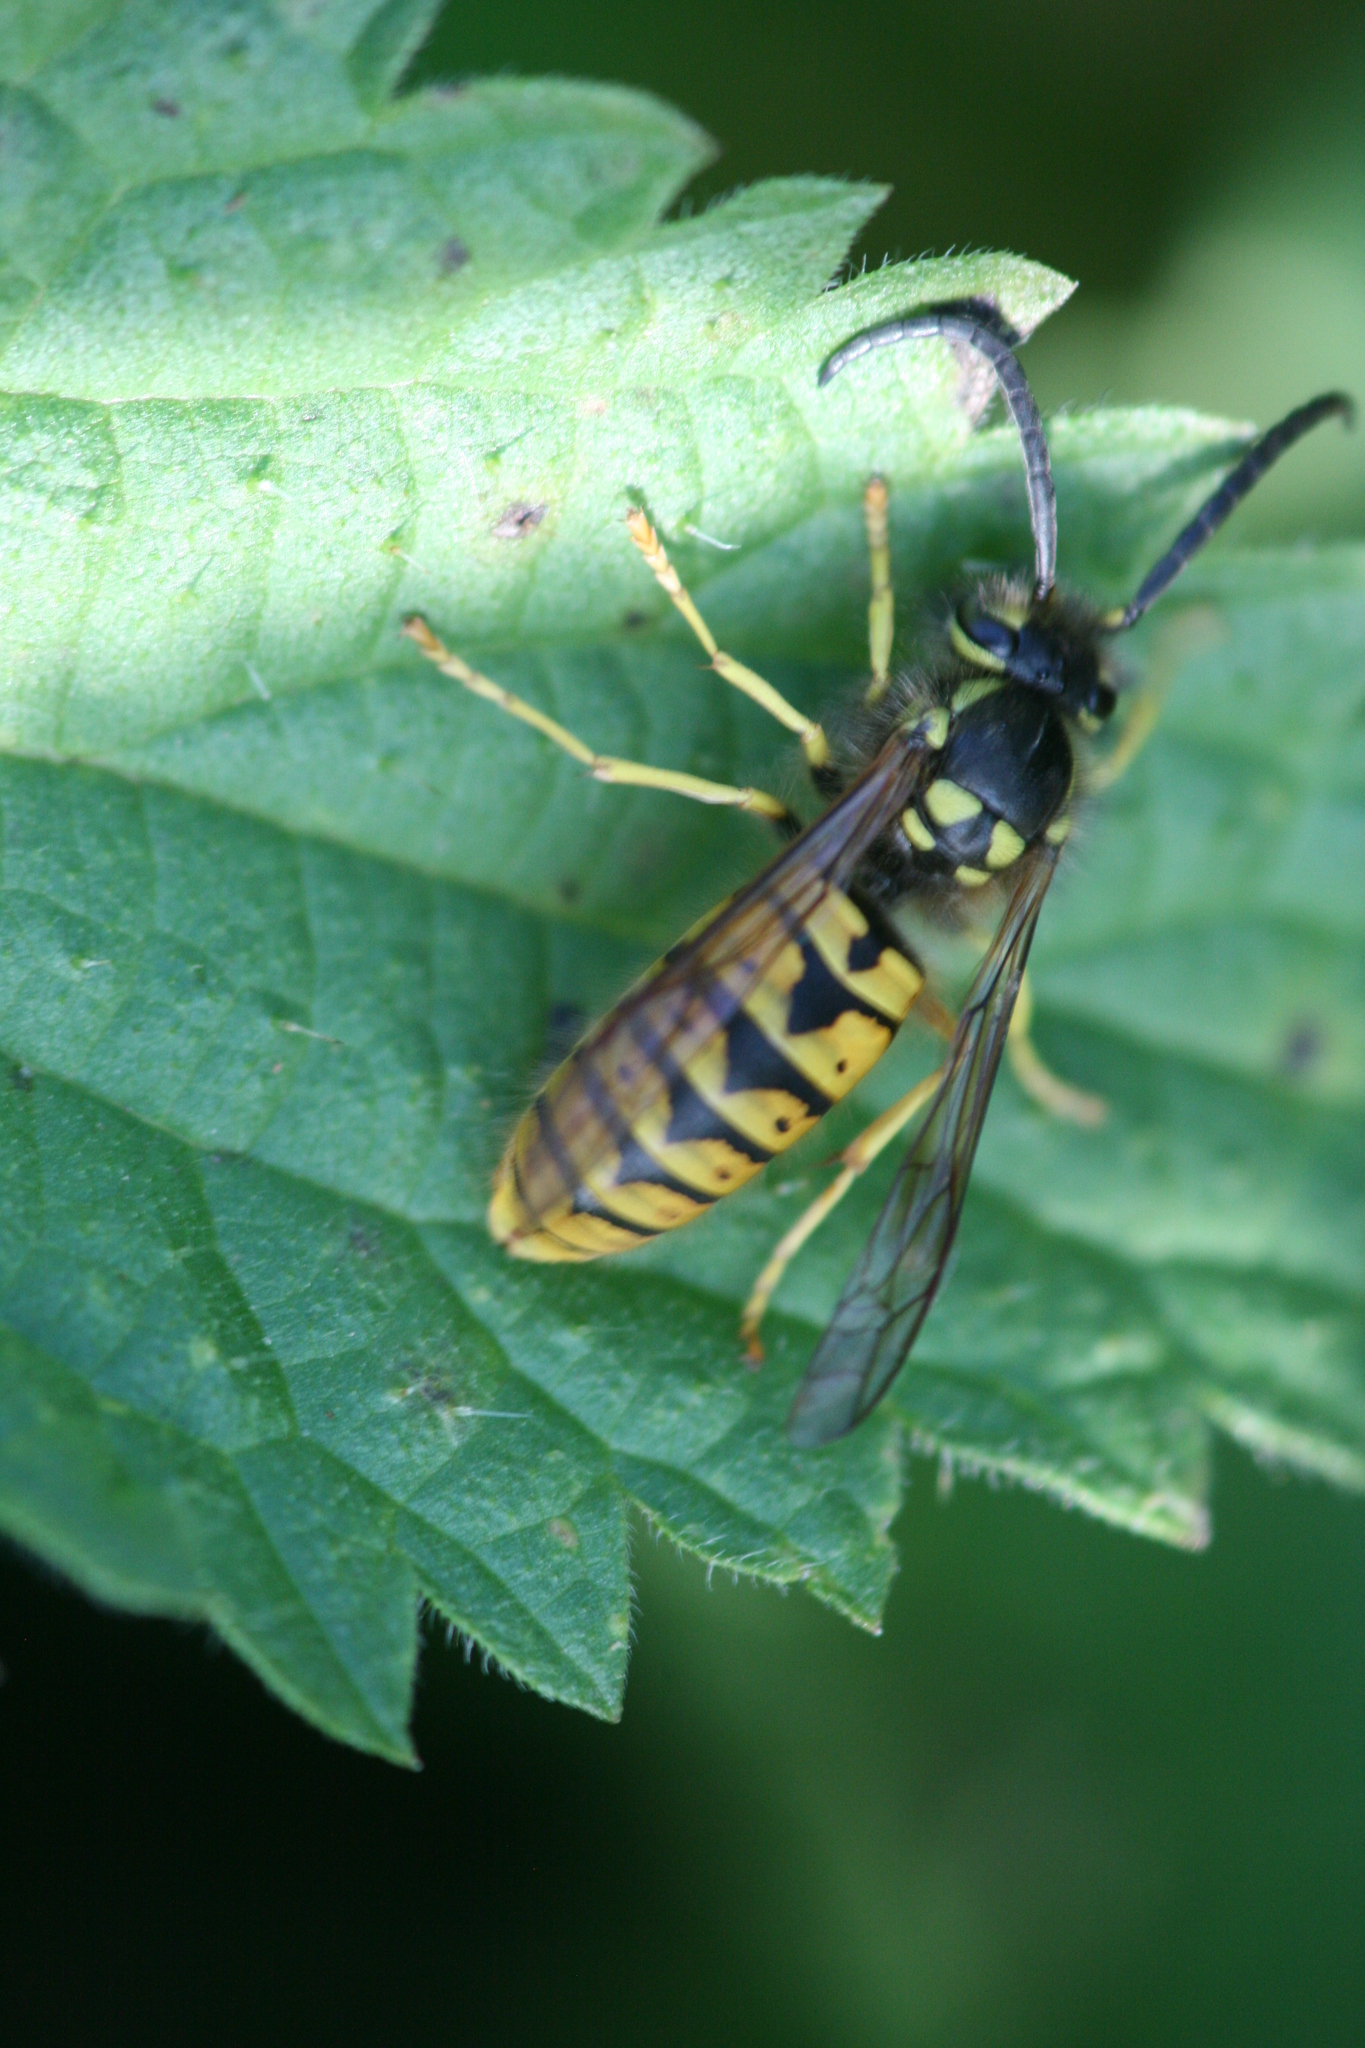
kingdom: Animalia
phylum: Arthropoda
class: Insecta
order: Hymenoptera
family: Vespidae
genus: Vespula
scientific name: Vespula germanica
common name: German wasp
